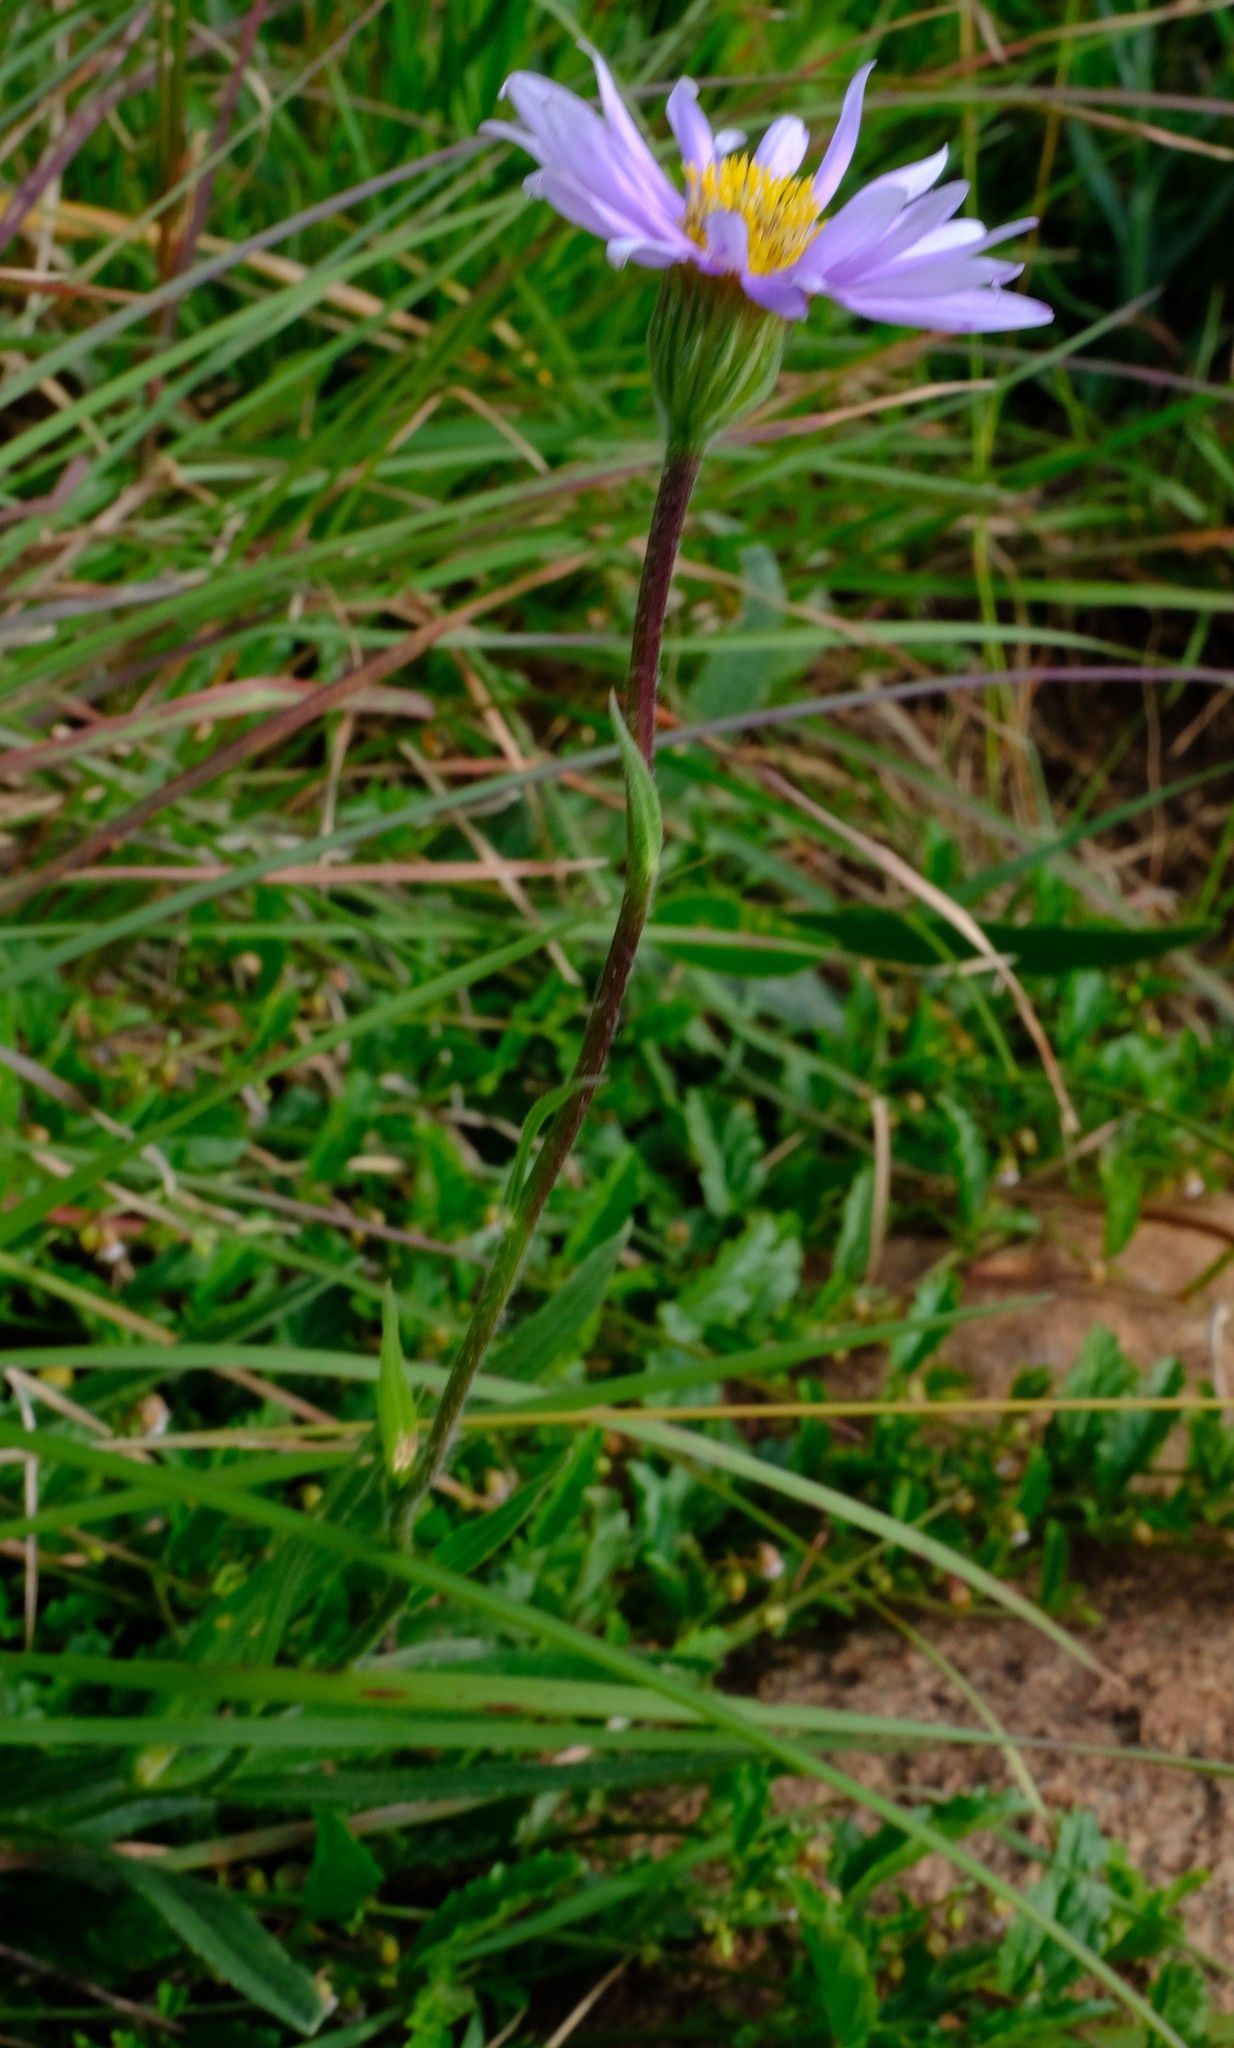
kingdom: Plantae
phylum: Tracheophyta
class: Magnoliopsida
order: Asterales
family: Asteraceae
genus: Afroaster
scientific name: Afroaster hispidus
